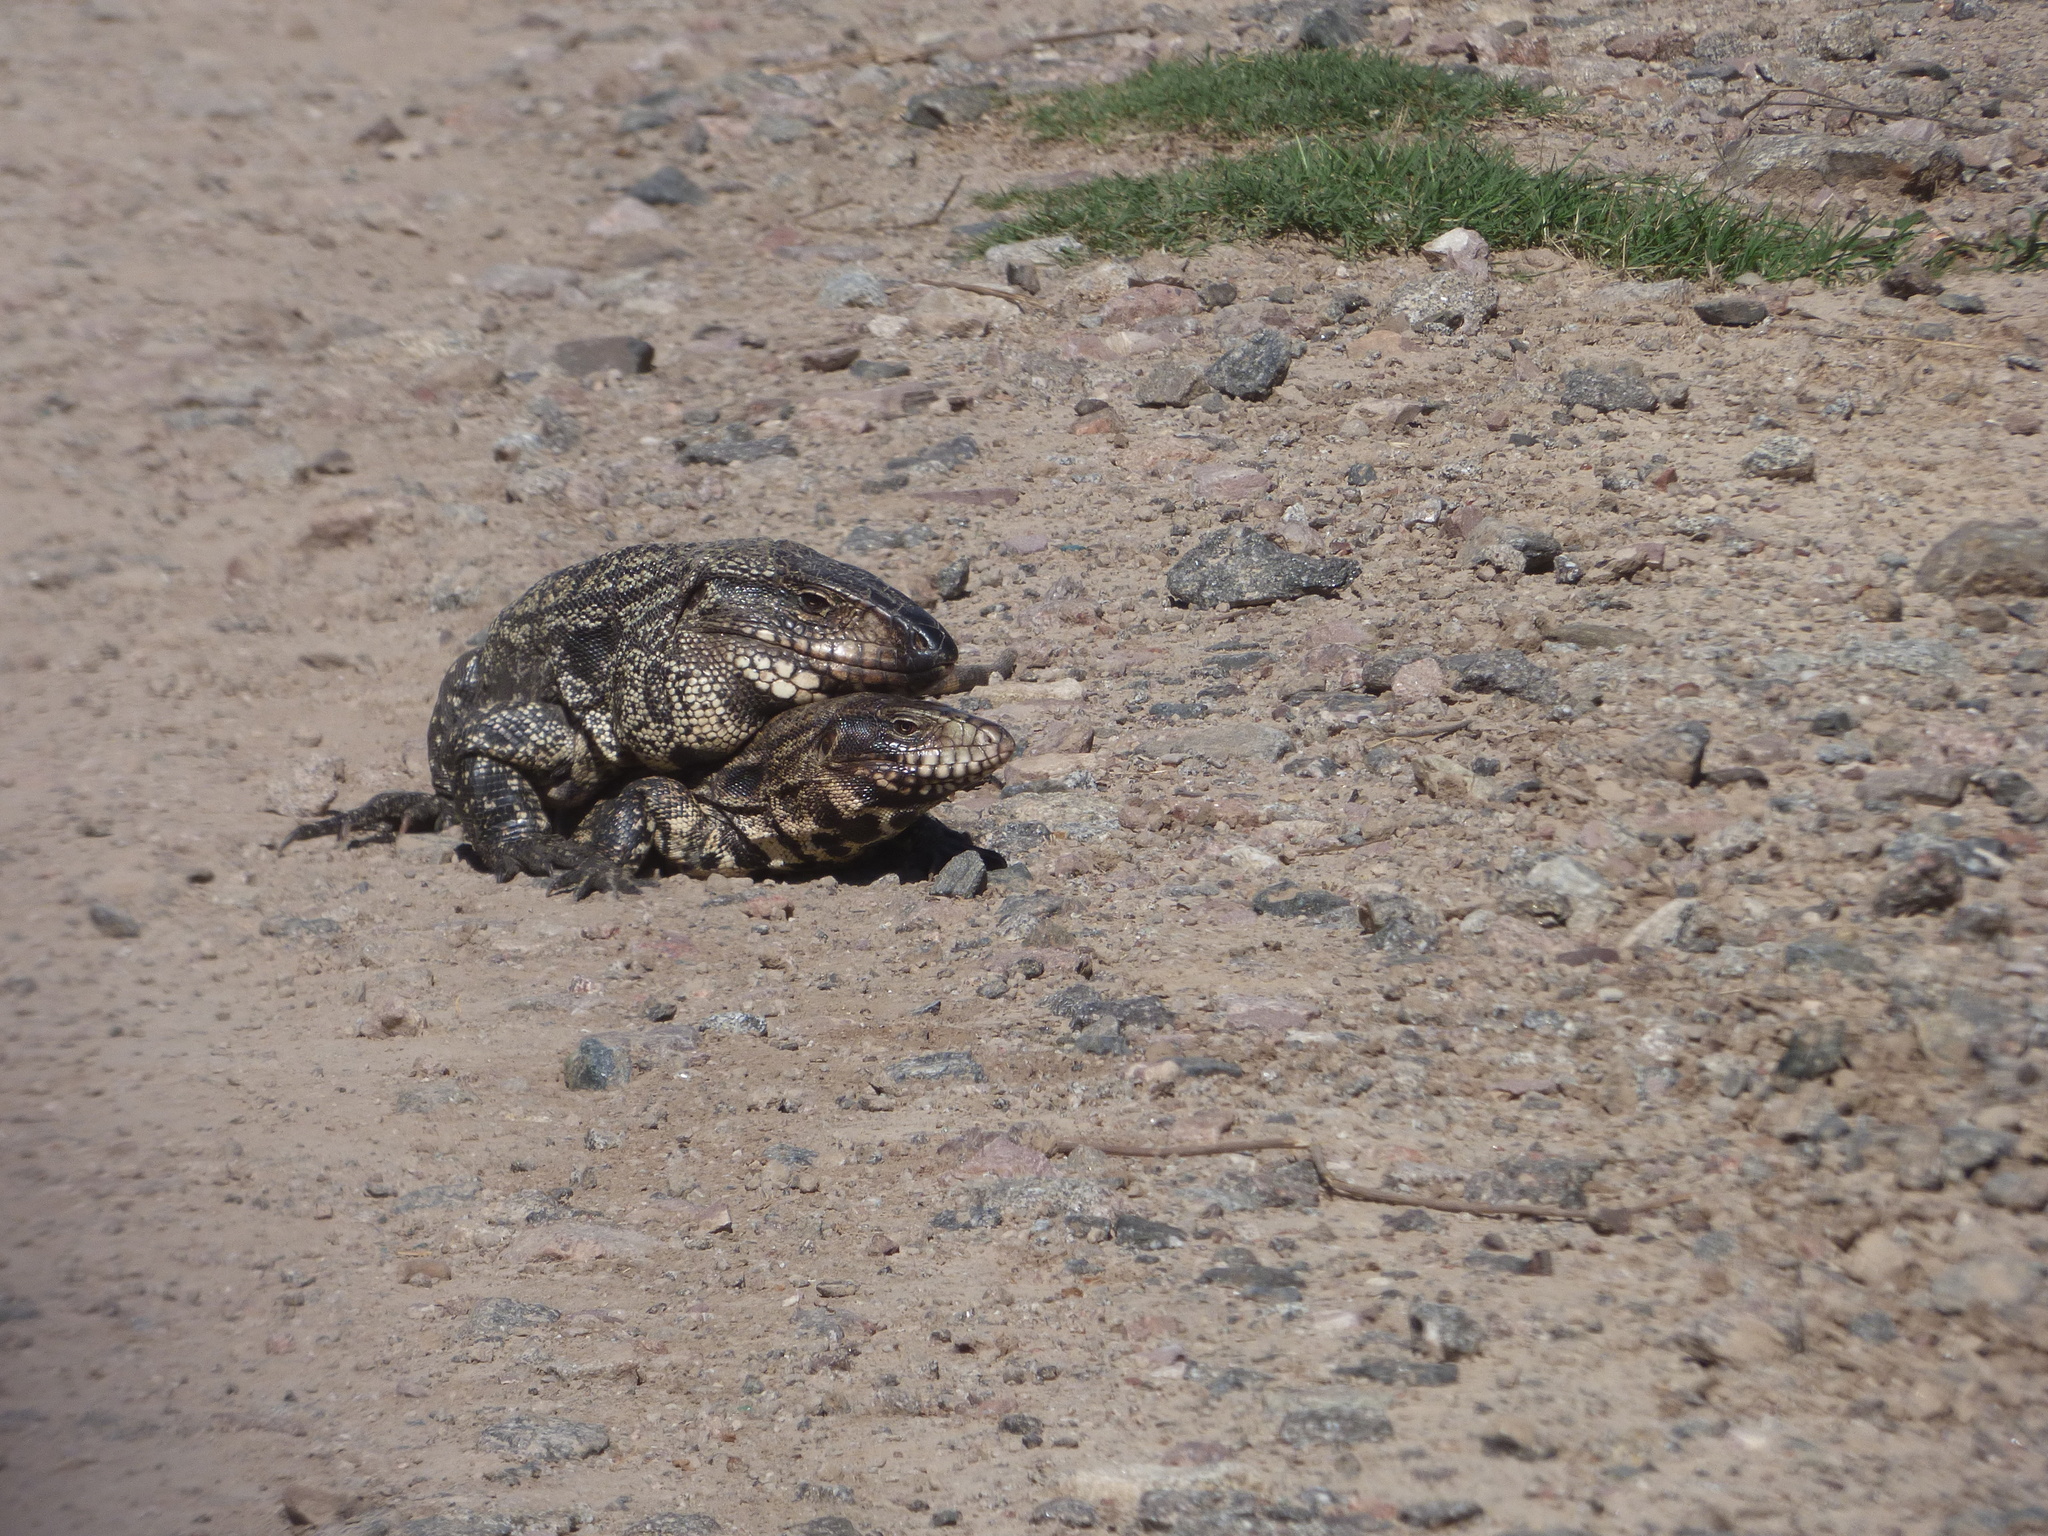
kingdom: Animalia
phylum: Chordata
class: Squamata
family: Teiidae
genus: Salvator
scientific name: Salvator merianae
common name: Argentine black and white tegu
